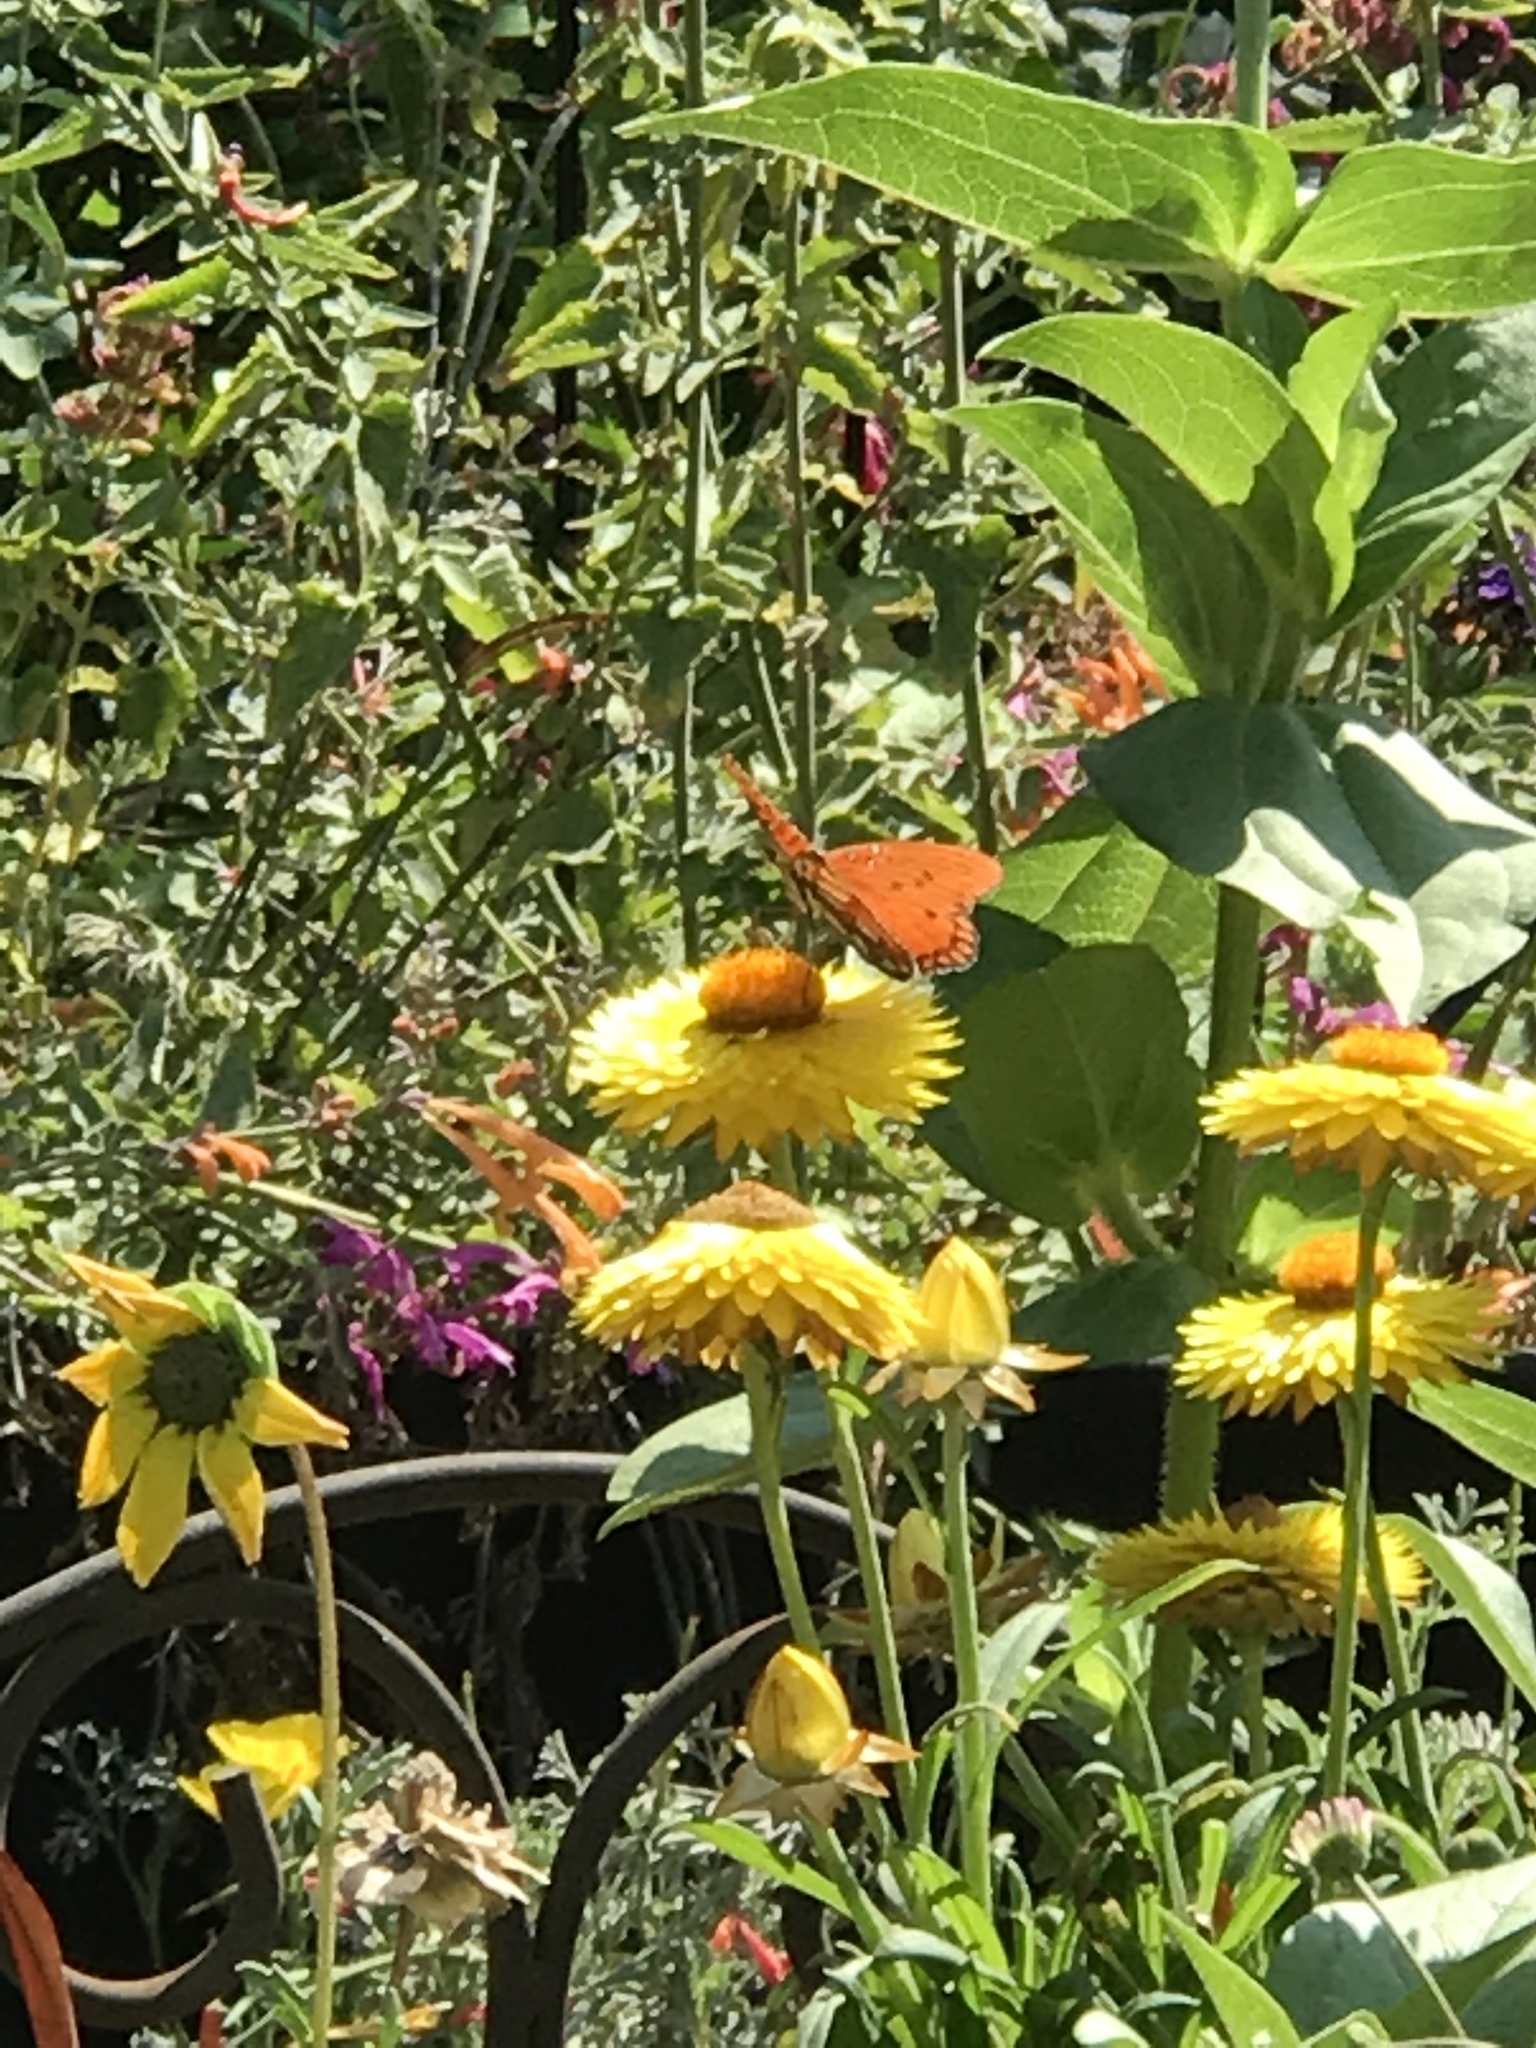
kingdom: Animalia
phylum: Arthropoda
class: Insecta
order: Lepidoptera
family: Nymphalidae
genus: Dione
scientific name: Dione vanillae
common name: Gulf fritillary
